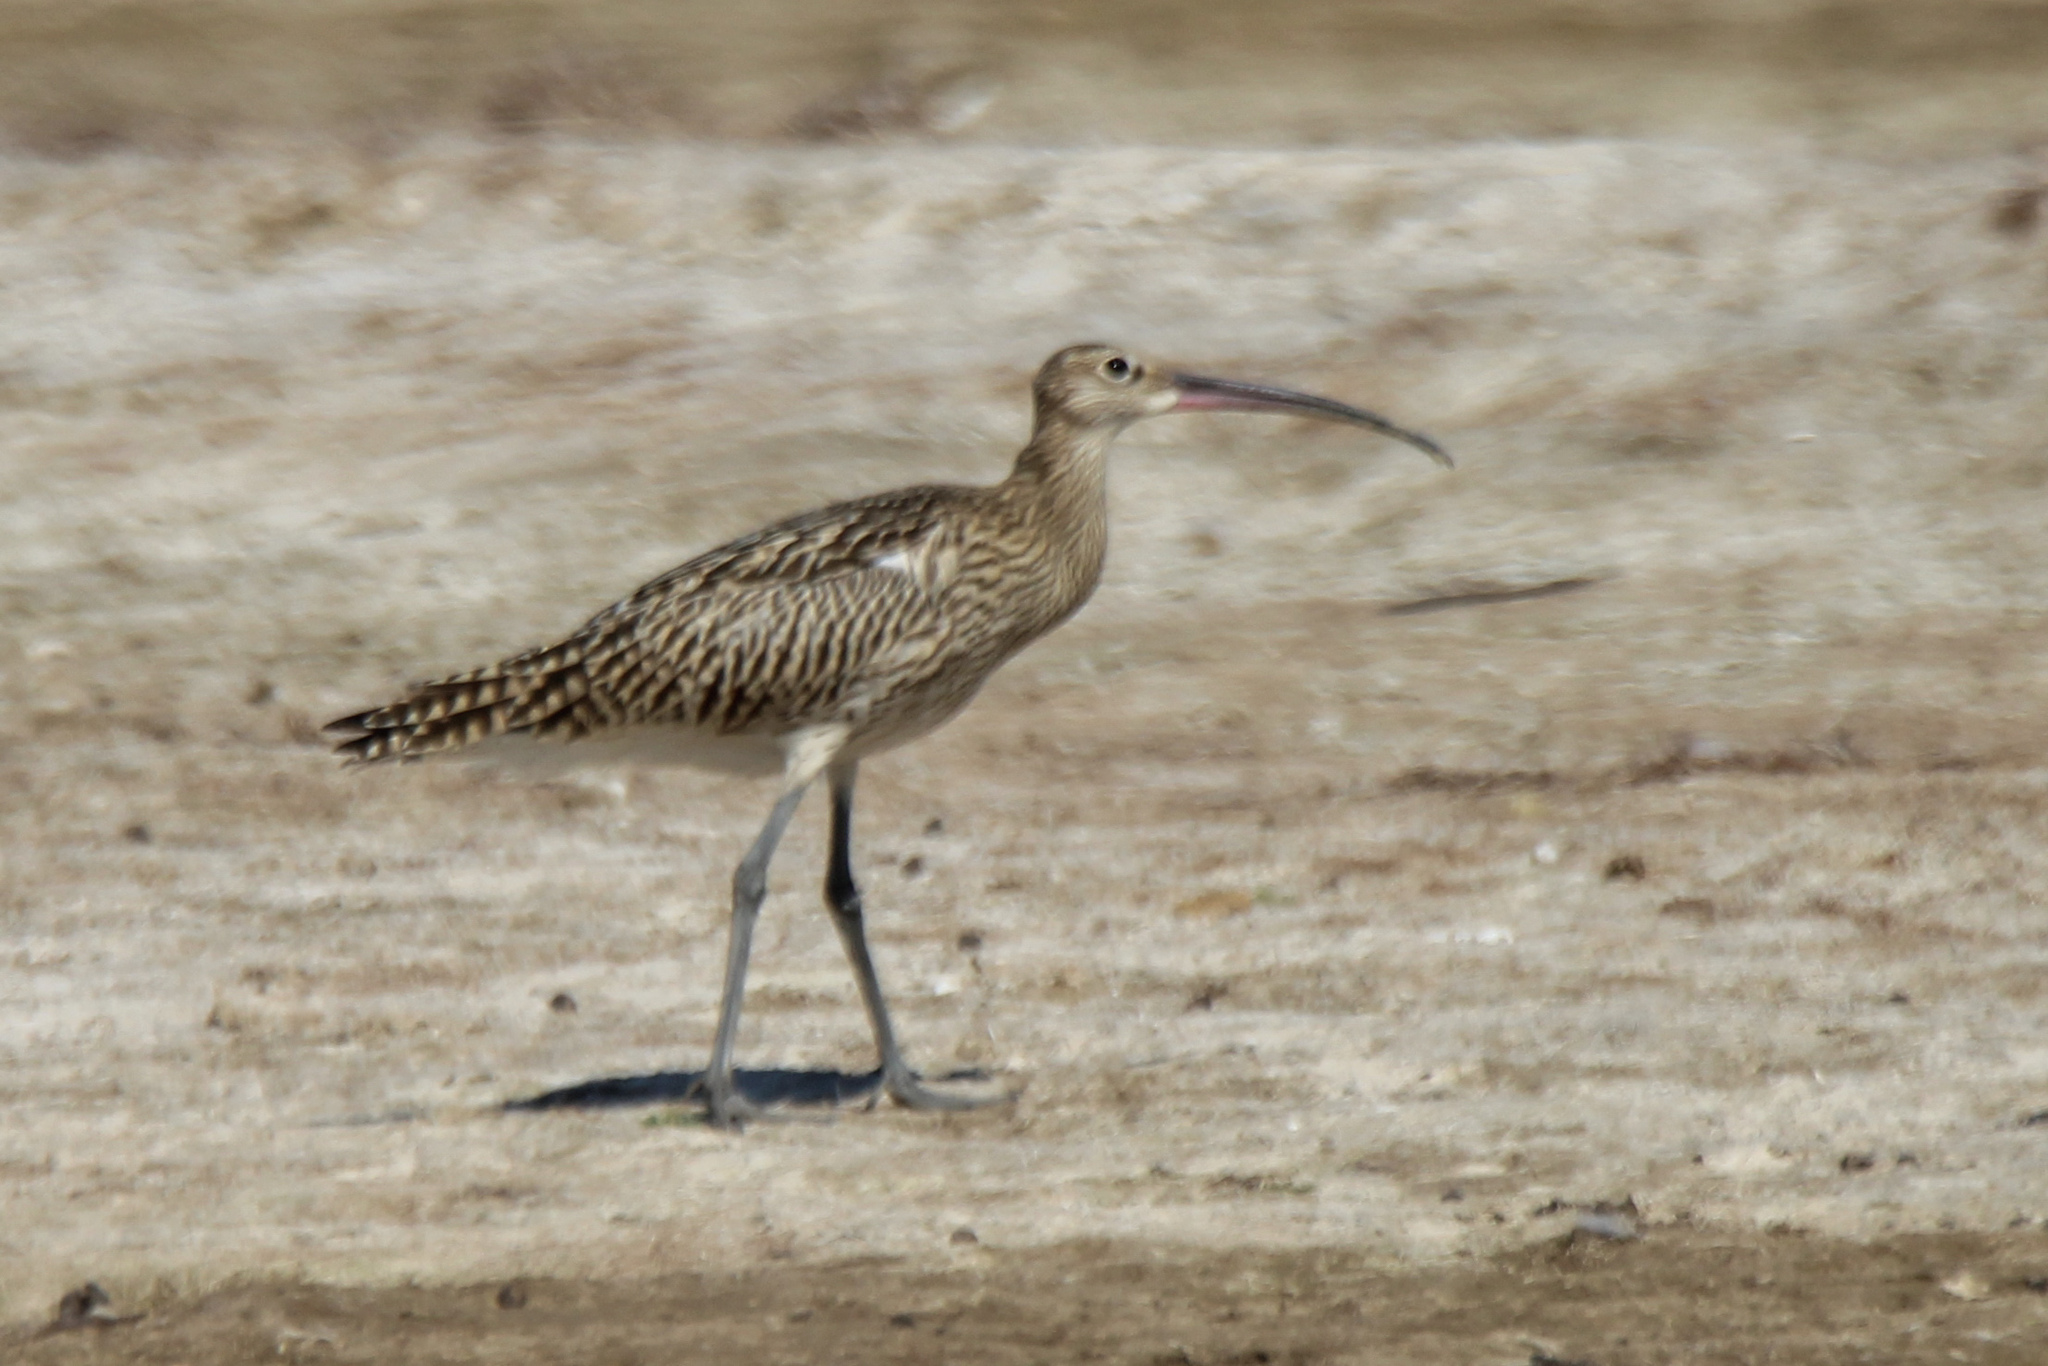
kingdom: Animalia
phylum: Chordata
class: Aves
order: Charadriiformes
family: Scolopacidae
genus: Numenius
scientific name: Numenius arquata
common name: Eurasian curlew
